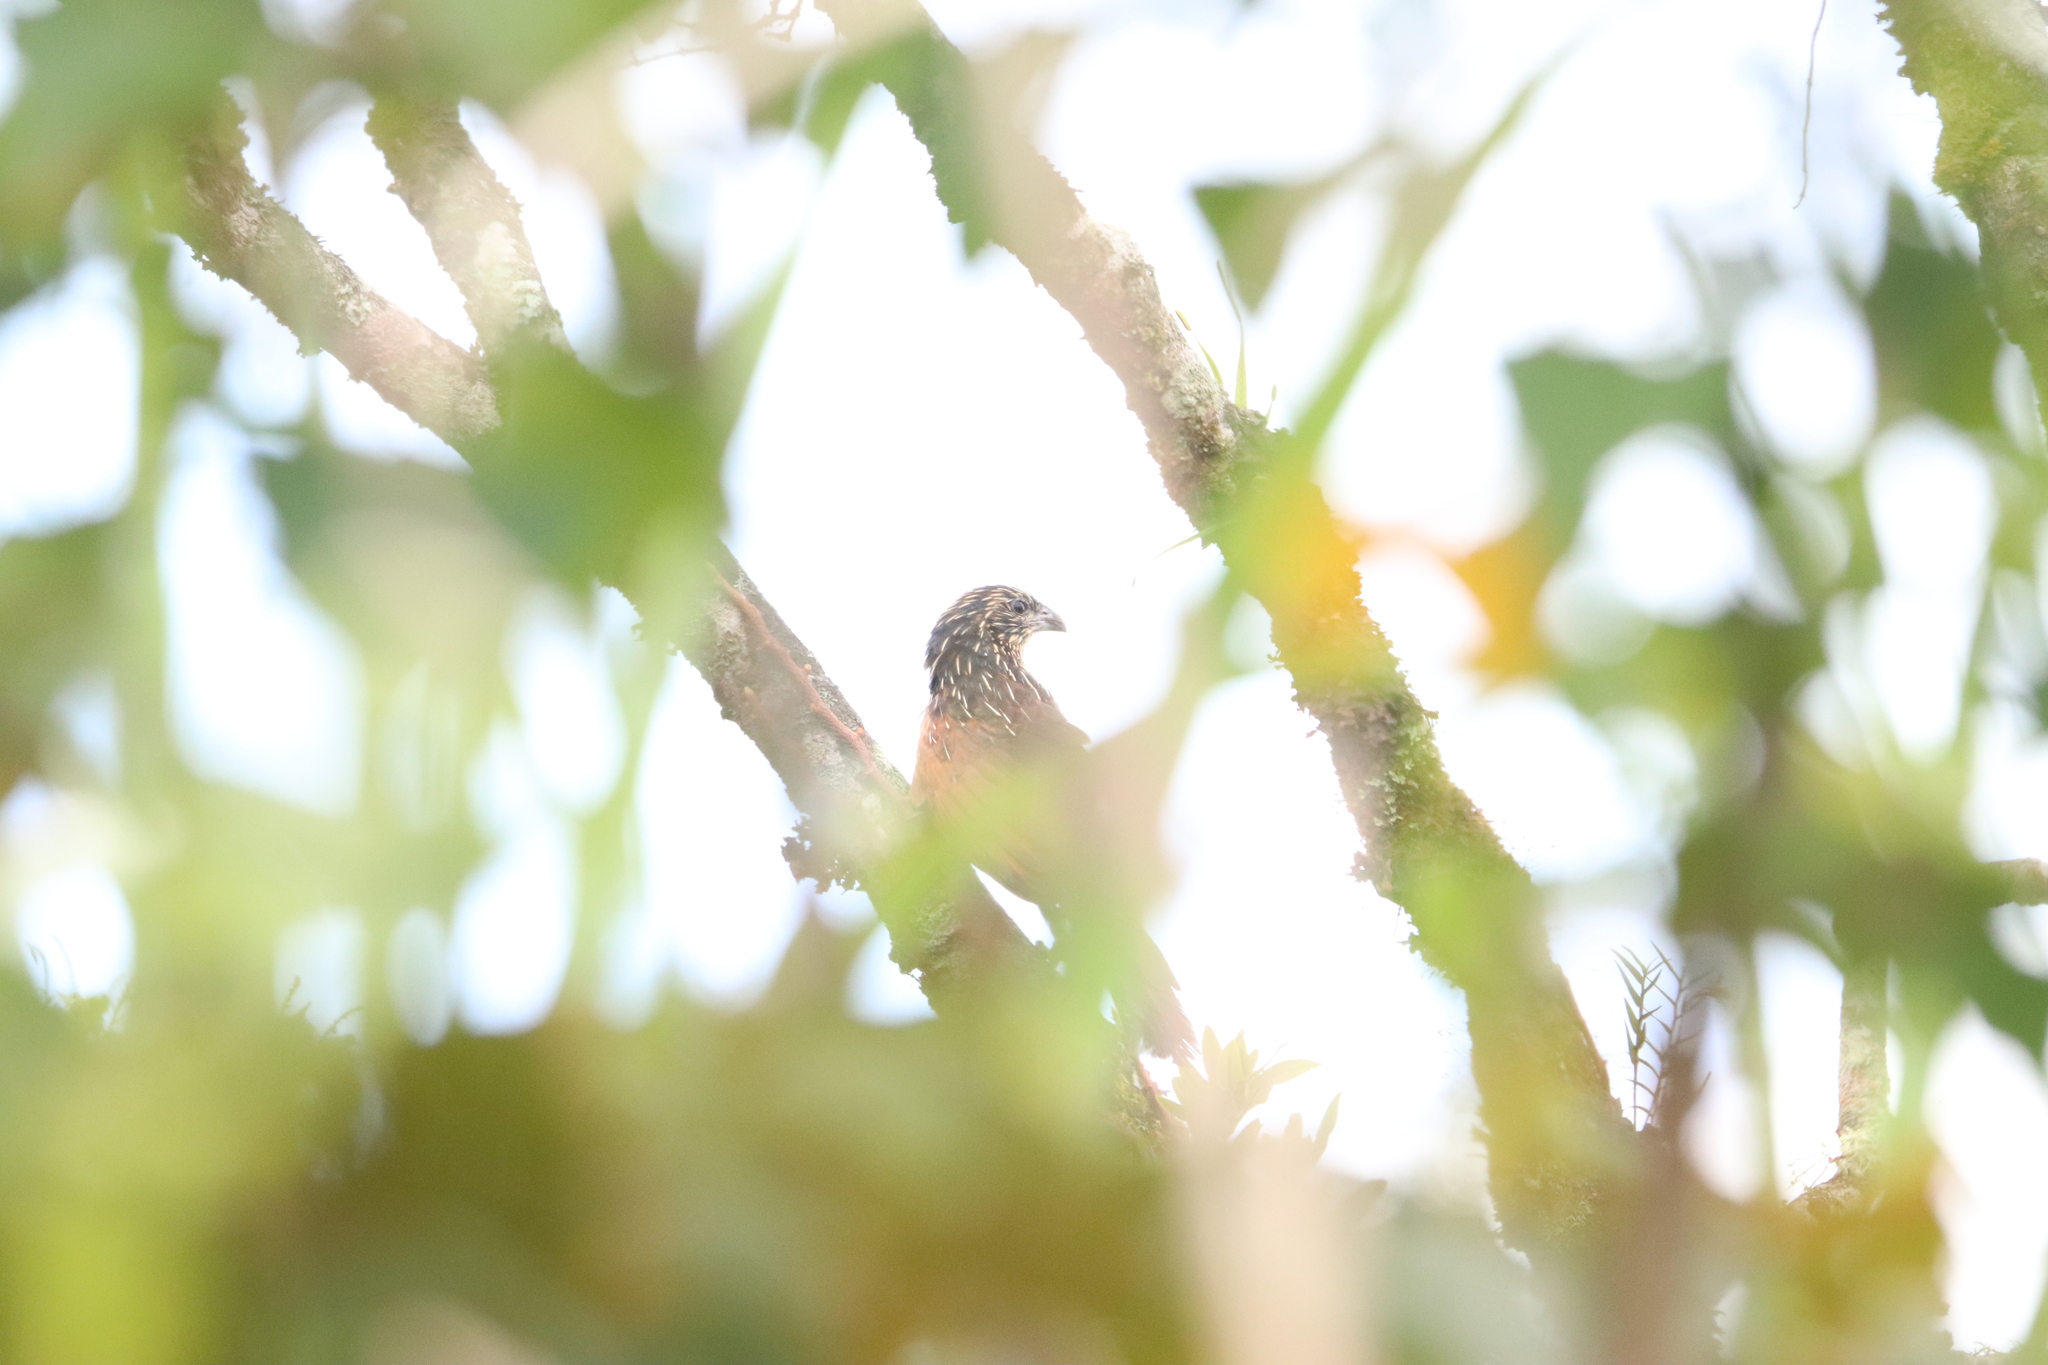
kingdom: Animalia
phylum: Chordata
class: Aves
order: Cuculiformes
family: Cuculidae
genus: Centropus
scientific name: Centropus bengalensis
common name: Lesser coucal
